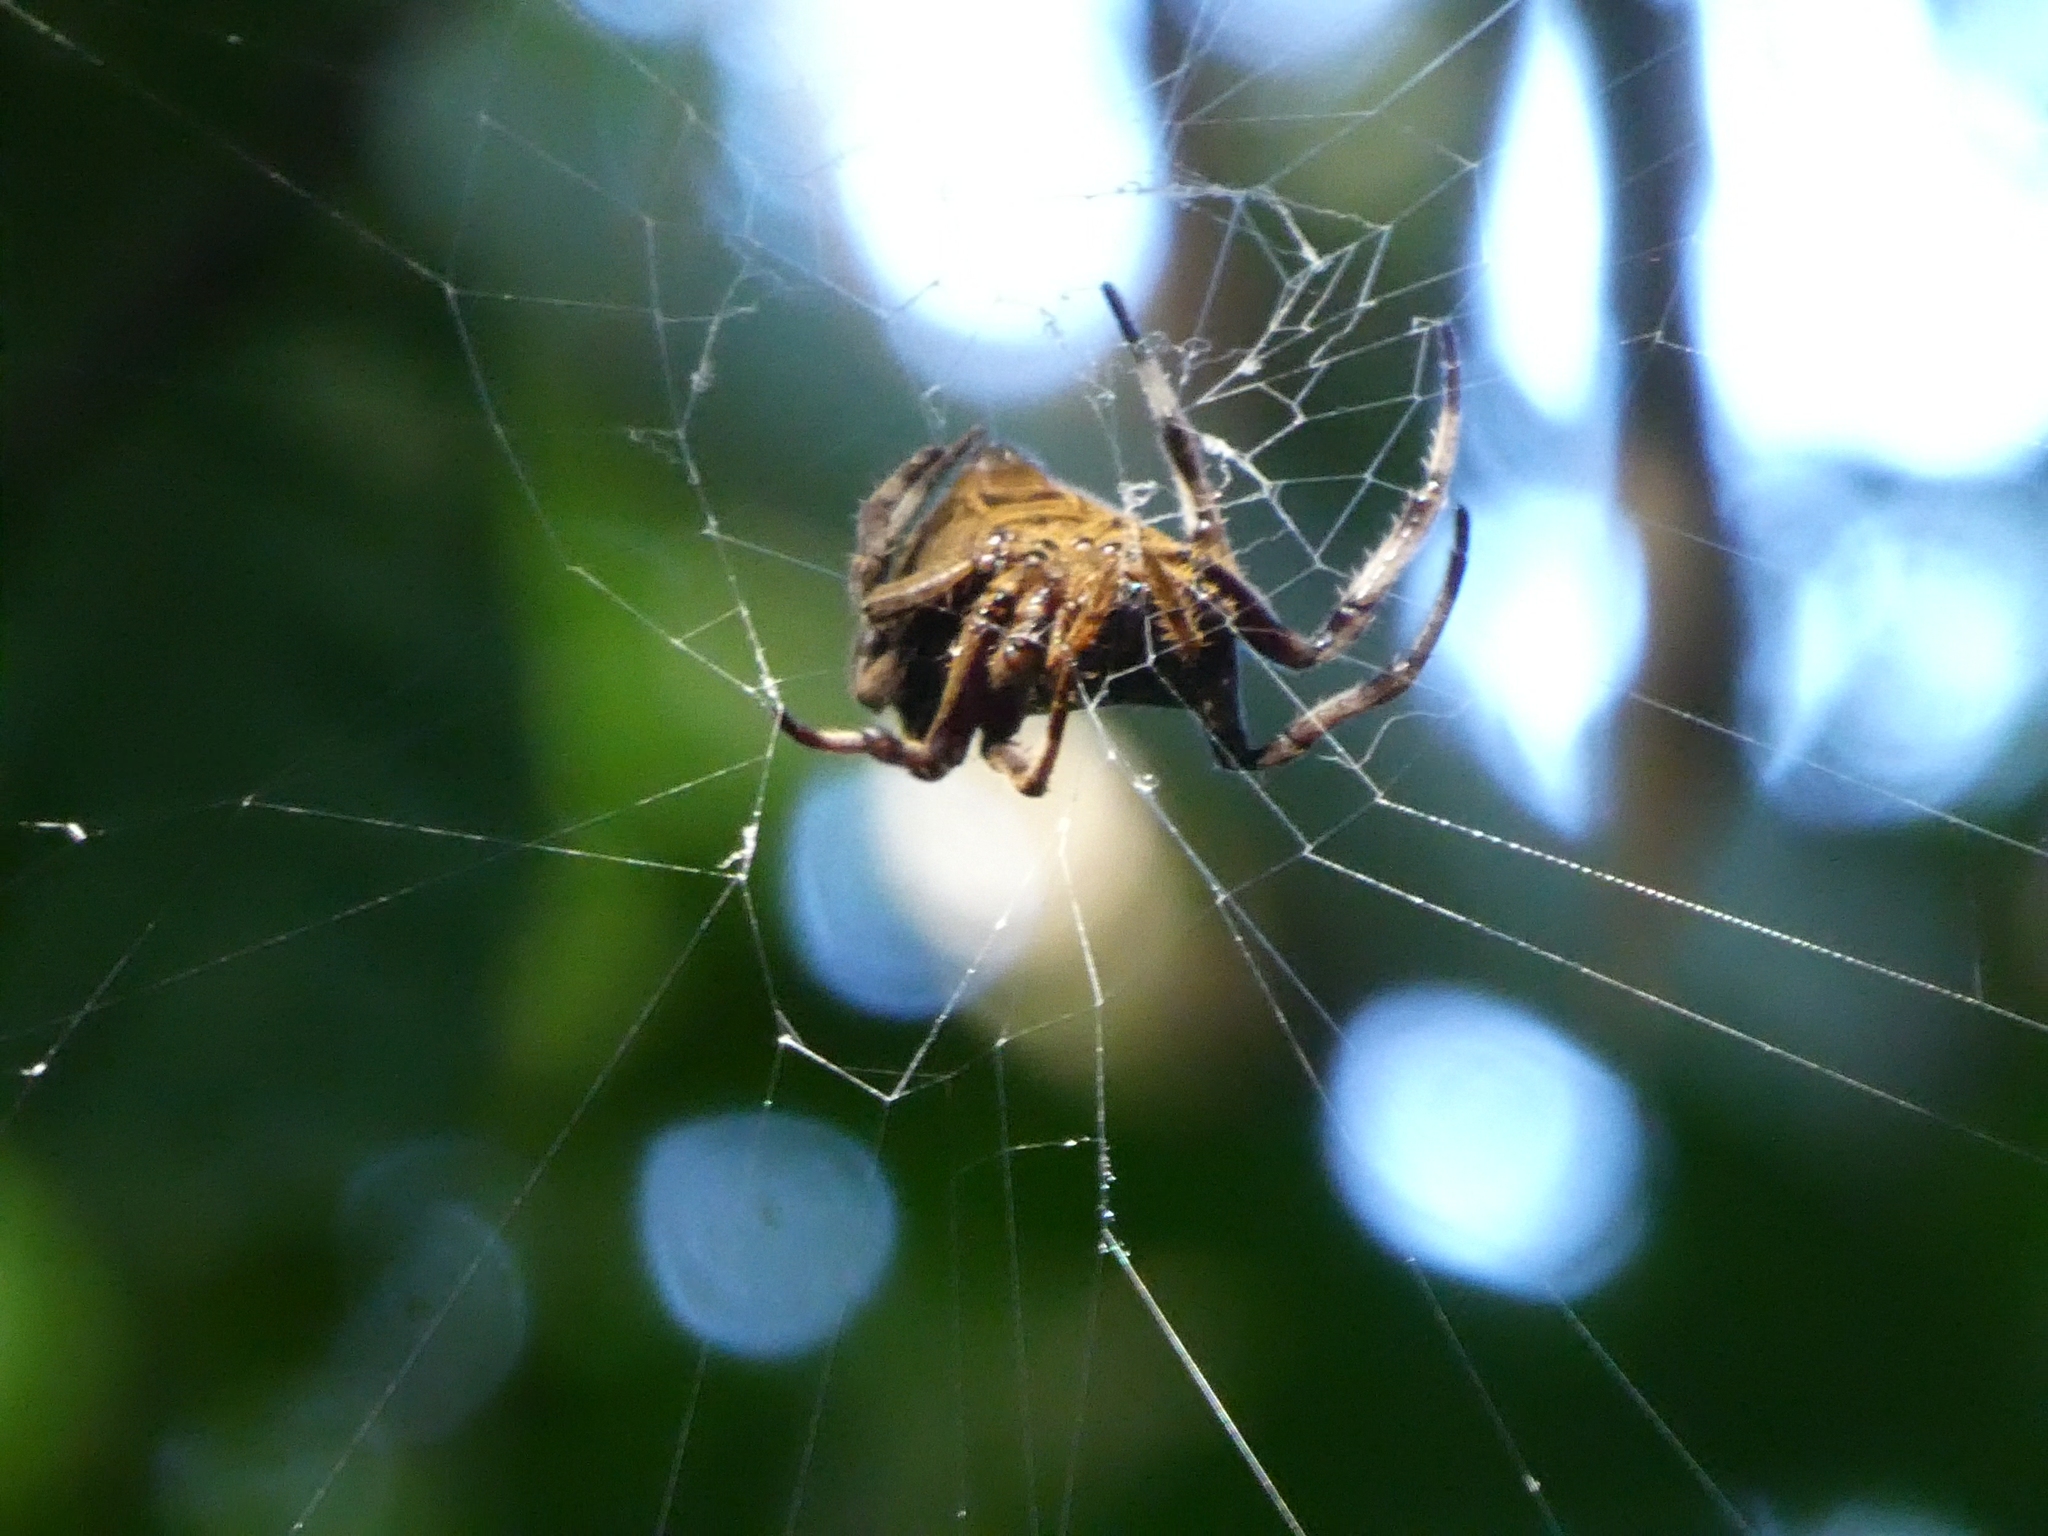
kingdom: Animalia
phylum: Arthropoda
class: Arachnida
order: Araneae
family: Araneidae
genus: Parawixia
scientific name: Parawixia dehaani
